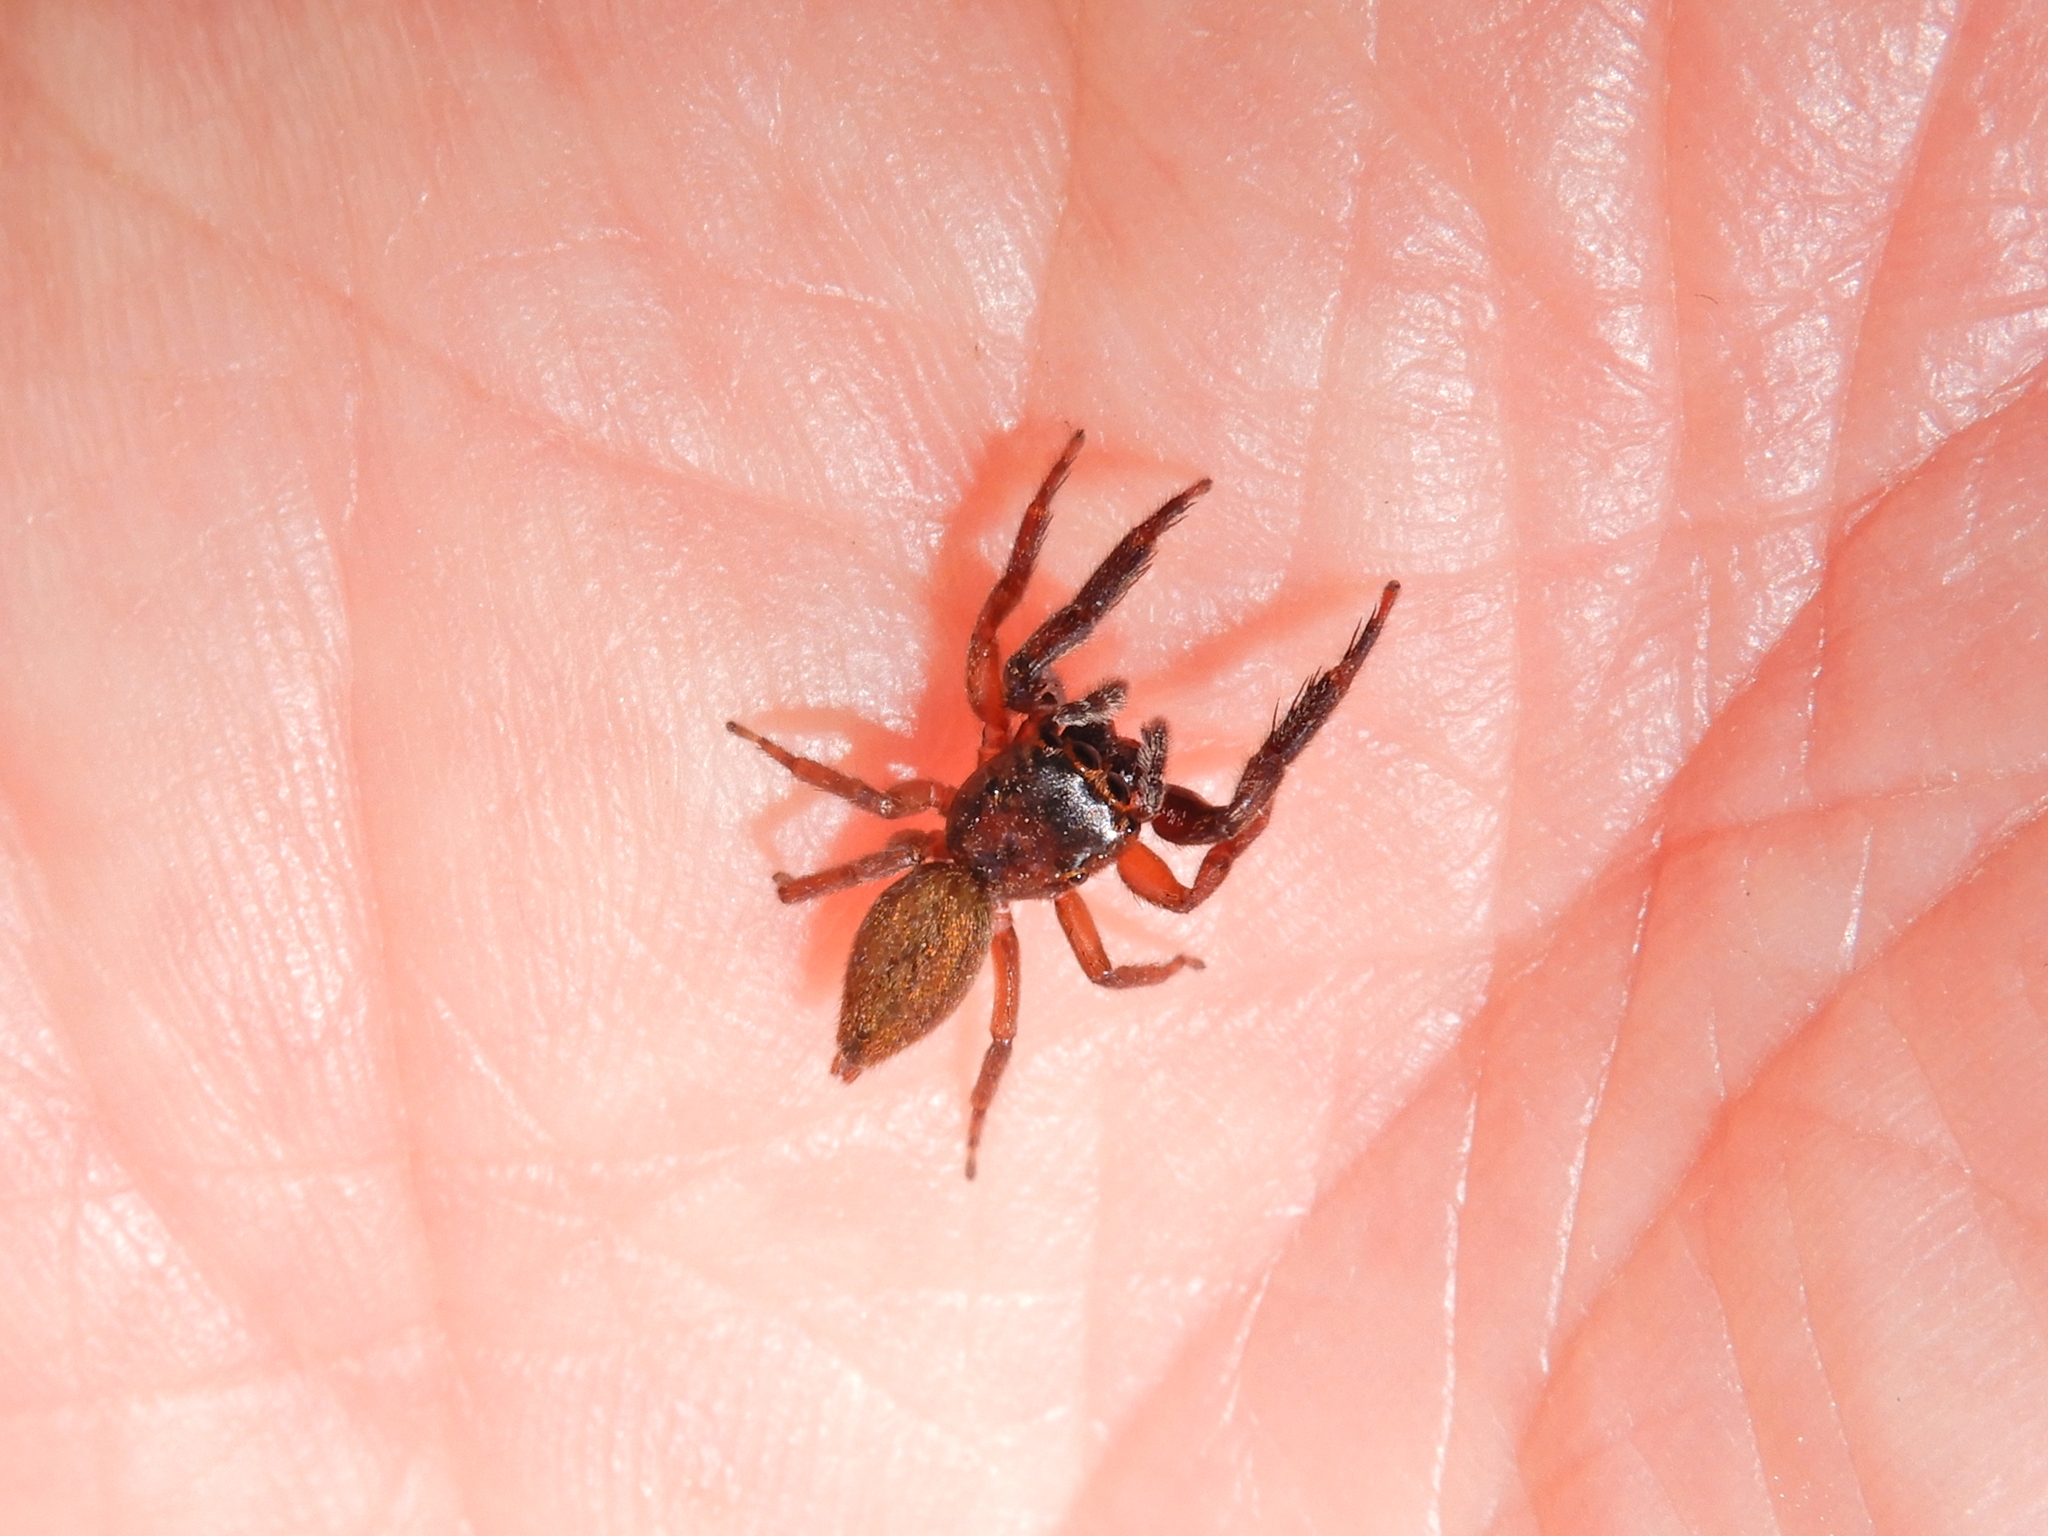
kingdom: Animalia
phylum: Arthropoda
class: Arachnida
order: Araneae
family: Salticidae
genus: Trite
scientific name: Trite auricoma
